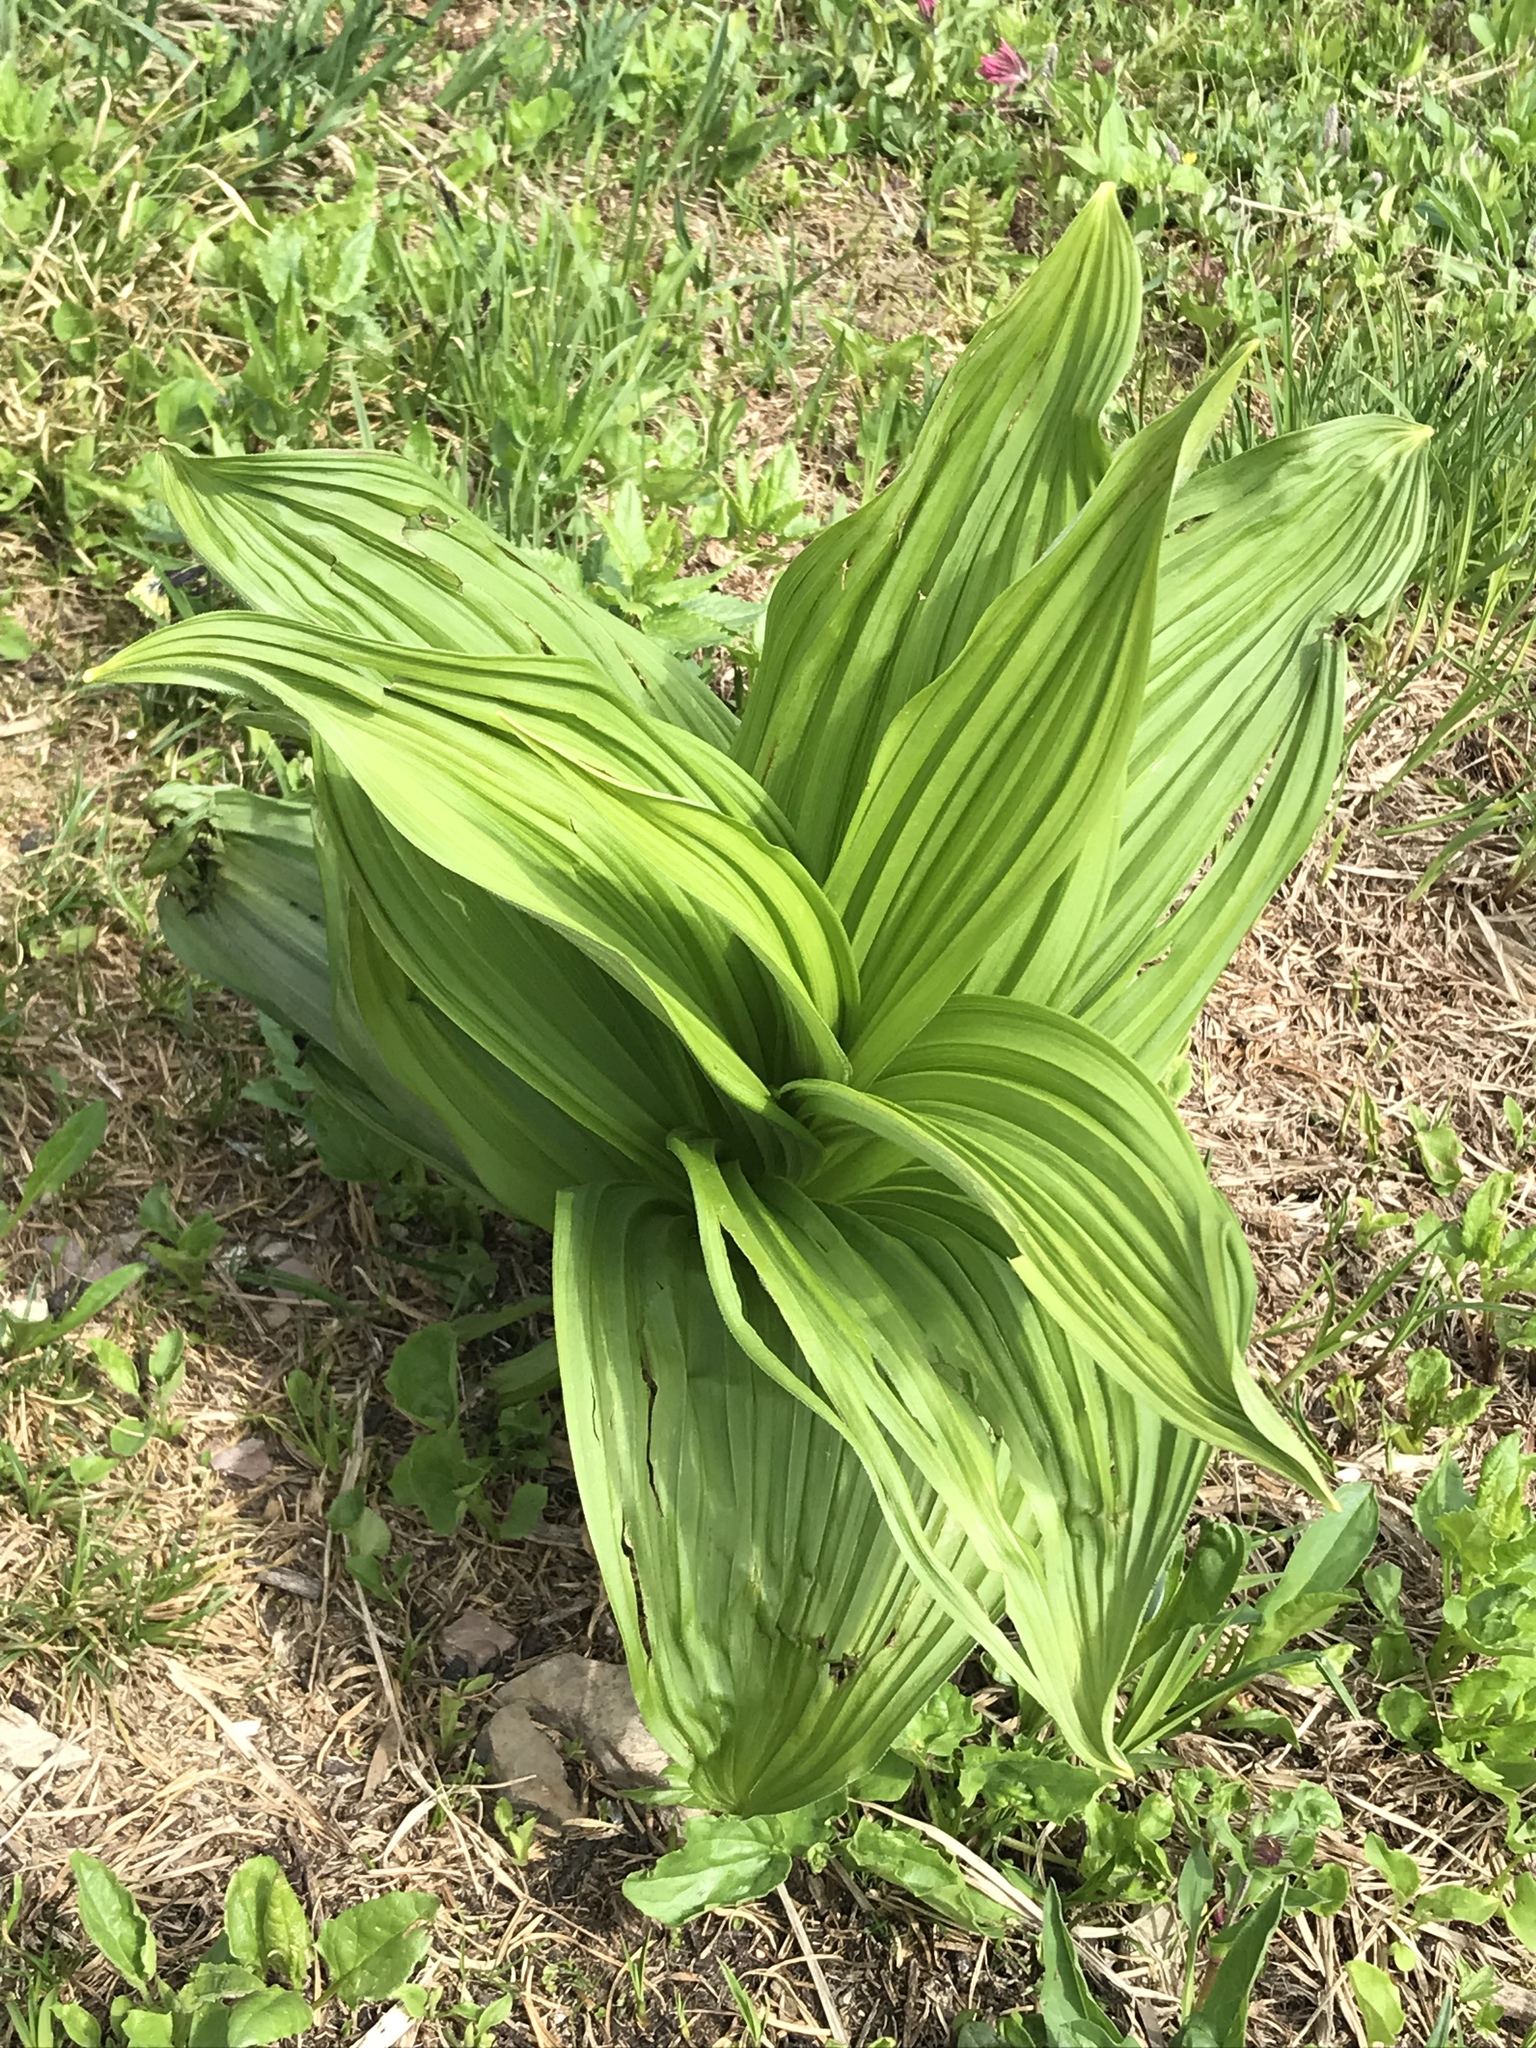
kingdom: Plantae
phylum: Tracheophyta
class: Liliopsida
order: Liliales
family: Melanthiaceae
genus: Veratrum
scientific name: Veratrum viride
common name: American false hellebore
